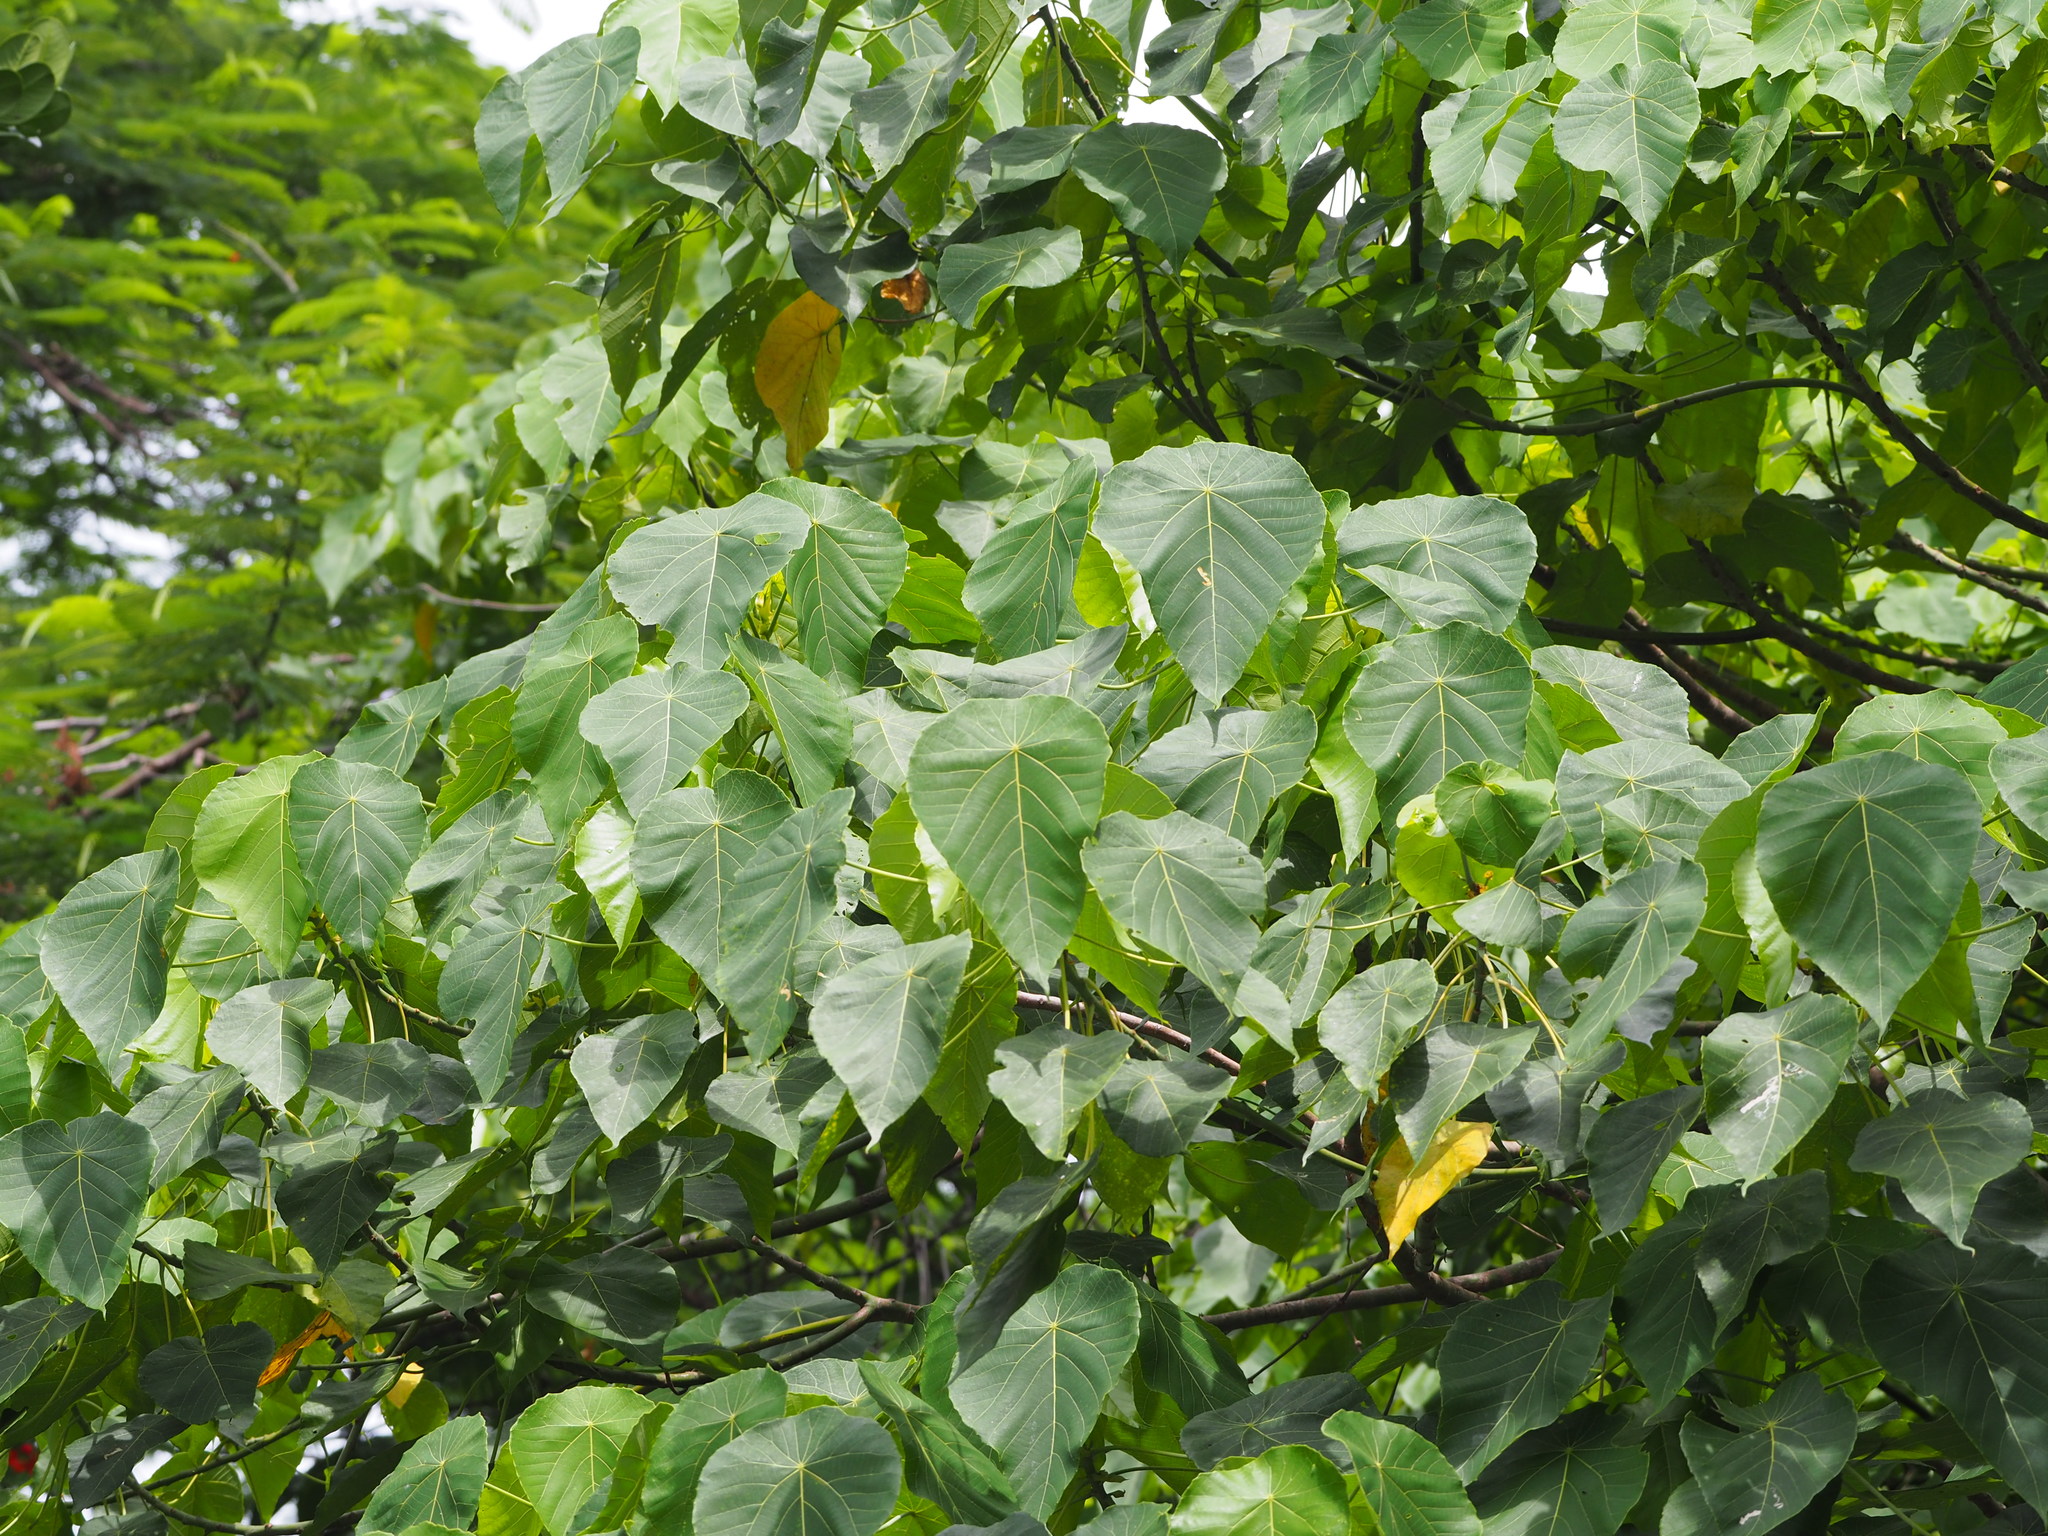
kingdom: Plantae
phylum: Tracheophyta
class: Magnoliopsida
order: Malpighiales
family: Euphorbiaceae
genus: Macaranga
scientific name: Macaranga tanarius
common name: Parasol leaf tree
